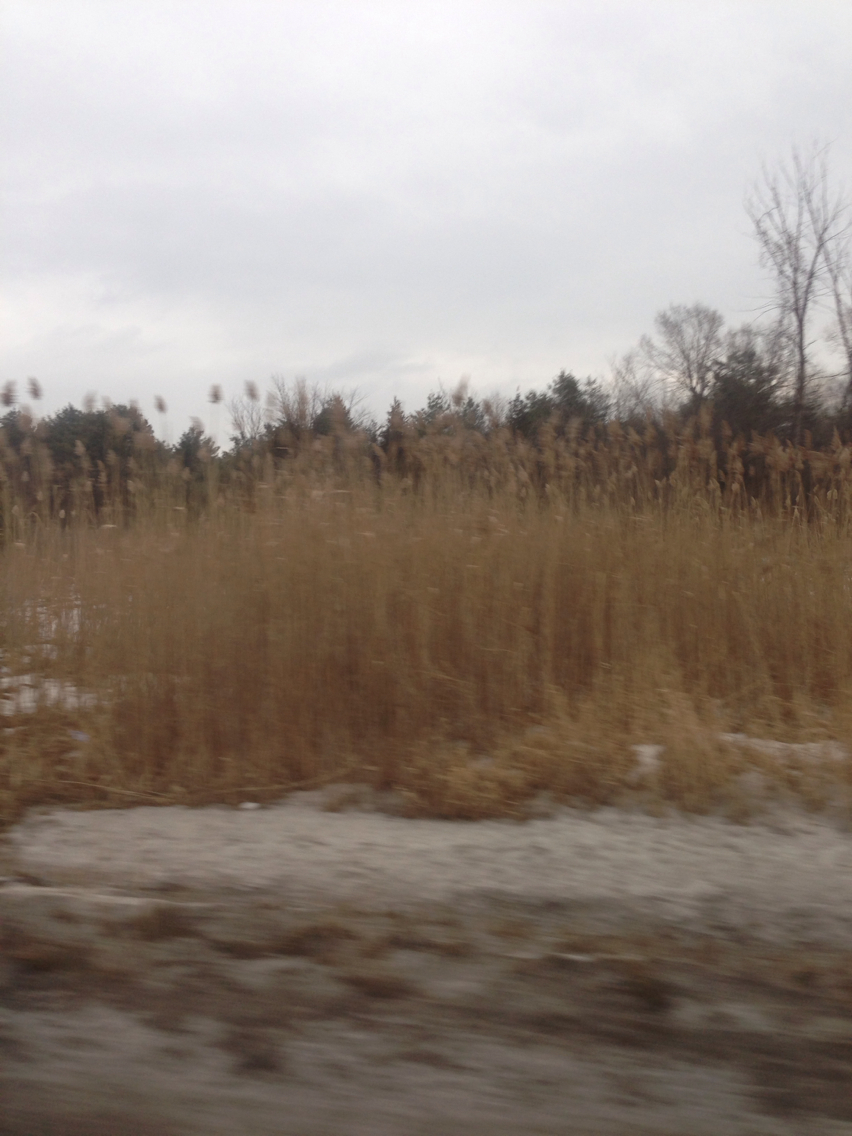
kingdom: Plantae
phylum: Tracheophyta
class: Liliopsida
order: Poales
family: Poaceae
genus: Phragmites
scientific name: Phragmites australis
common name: Common reed
